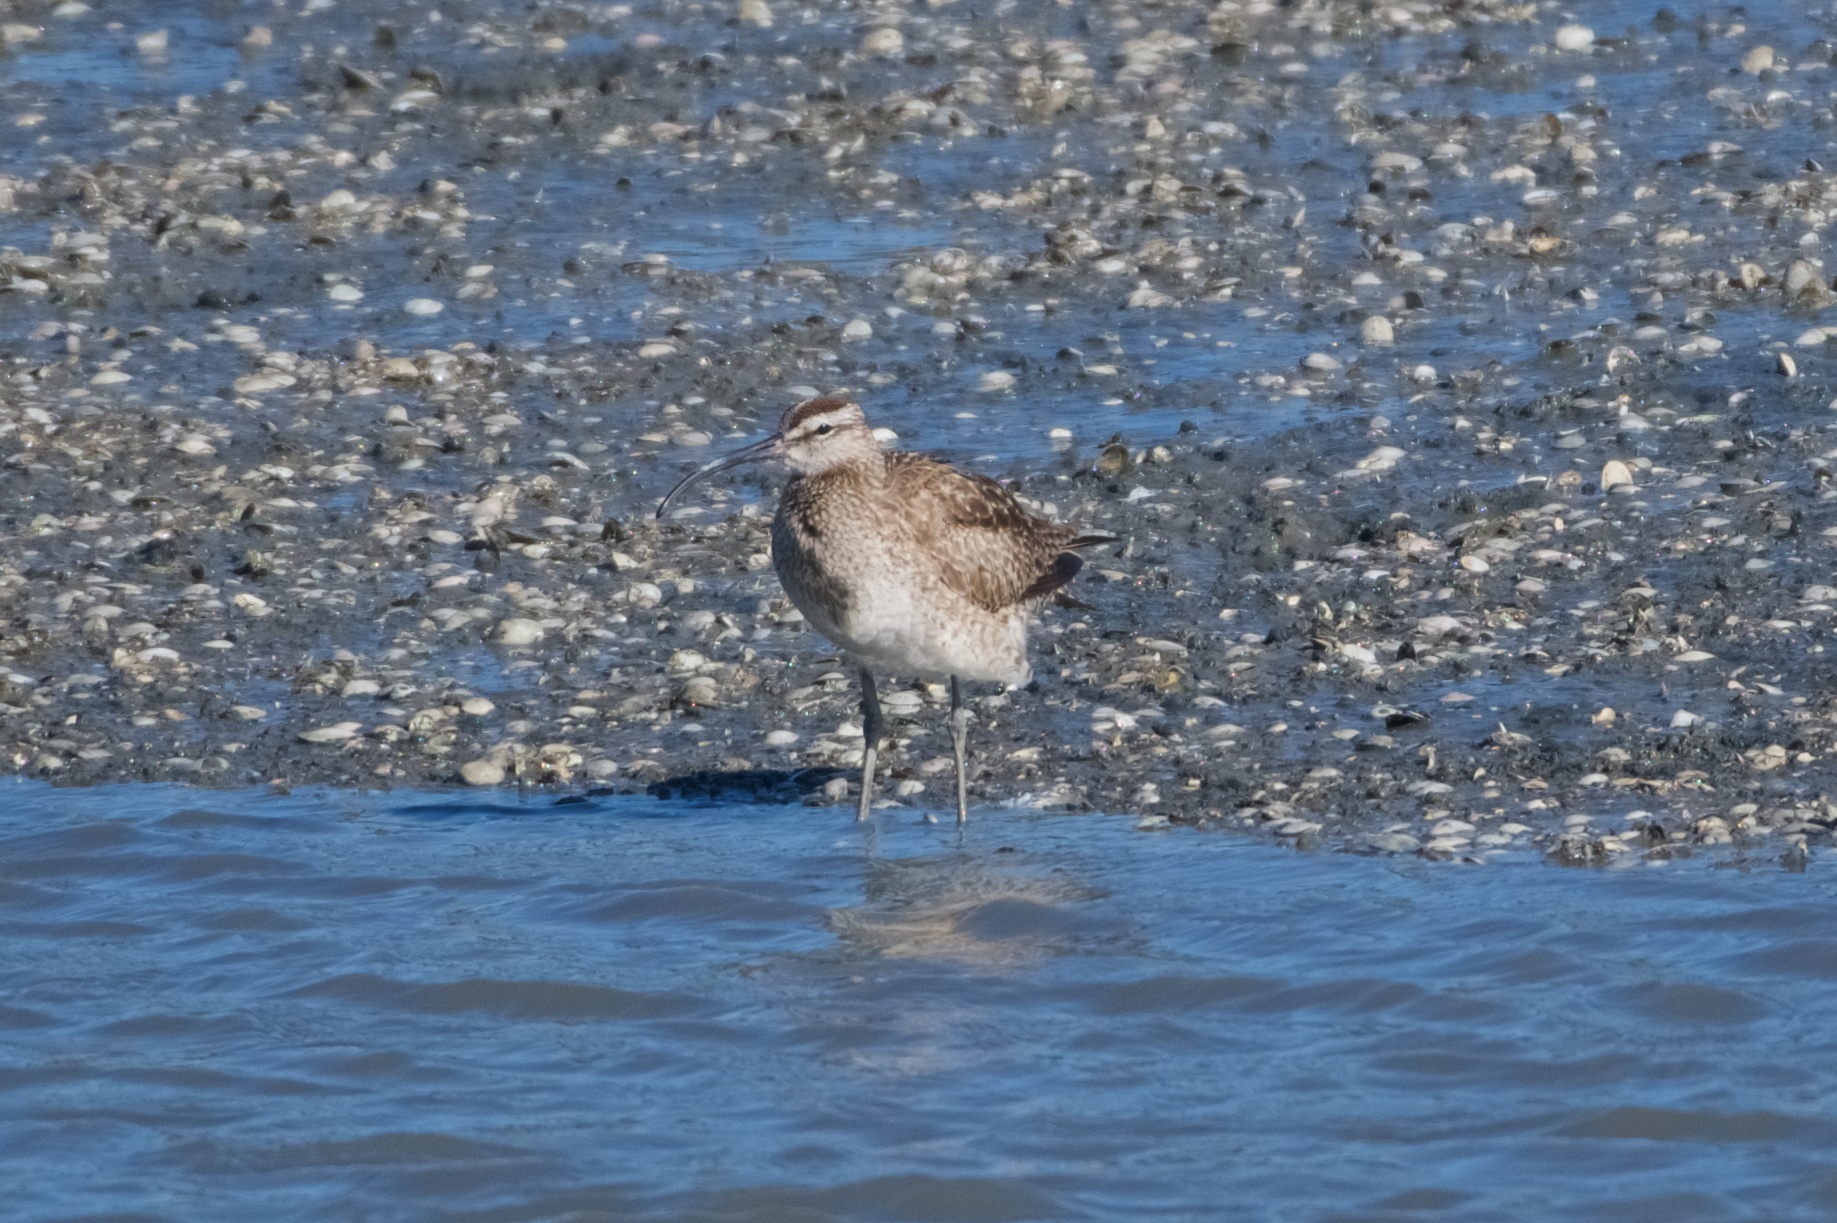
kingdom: Animalia
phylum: Chordata
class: Aves
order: Charadriiformes
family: Scolopacidae
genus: Numenius
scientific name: Numenius phaeopus
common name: Whimbrel
